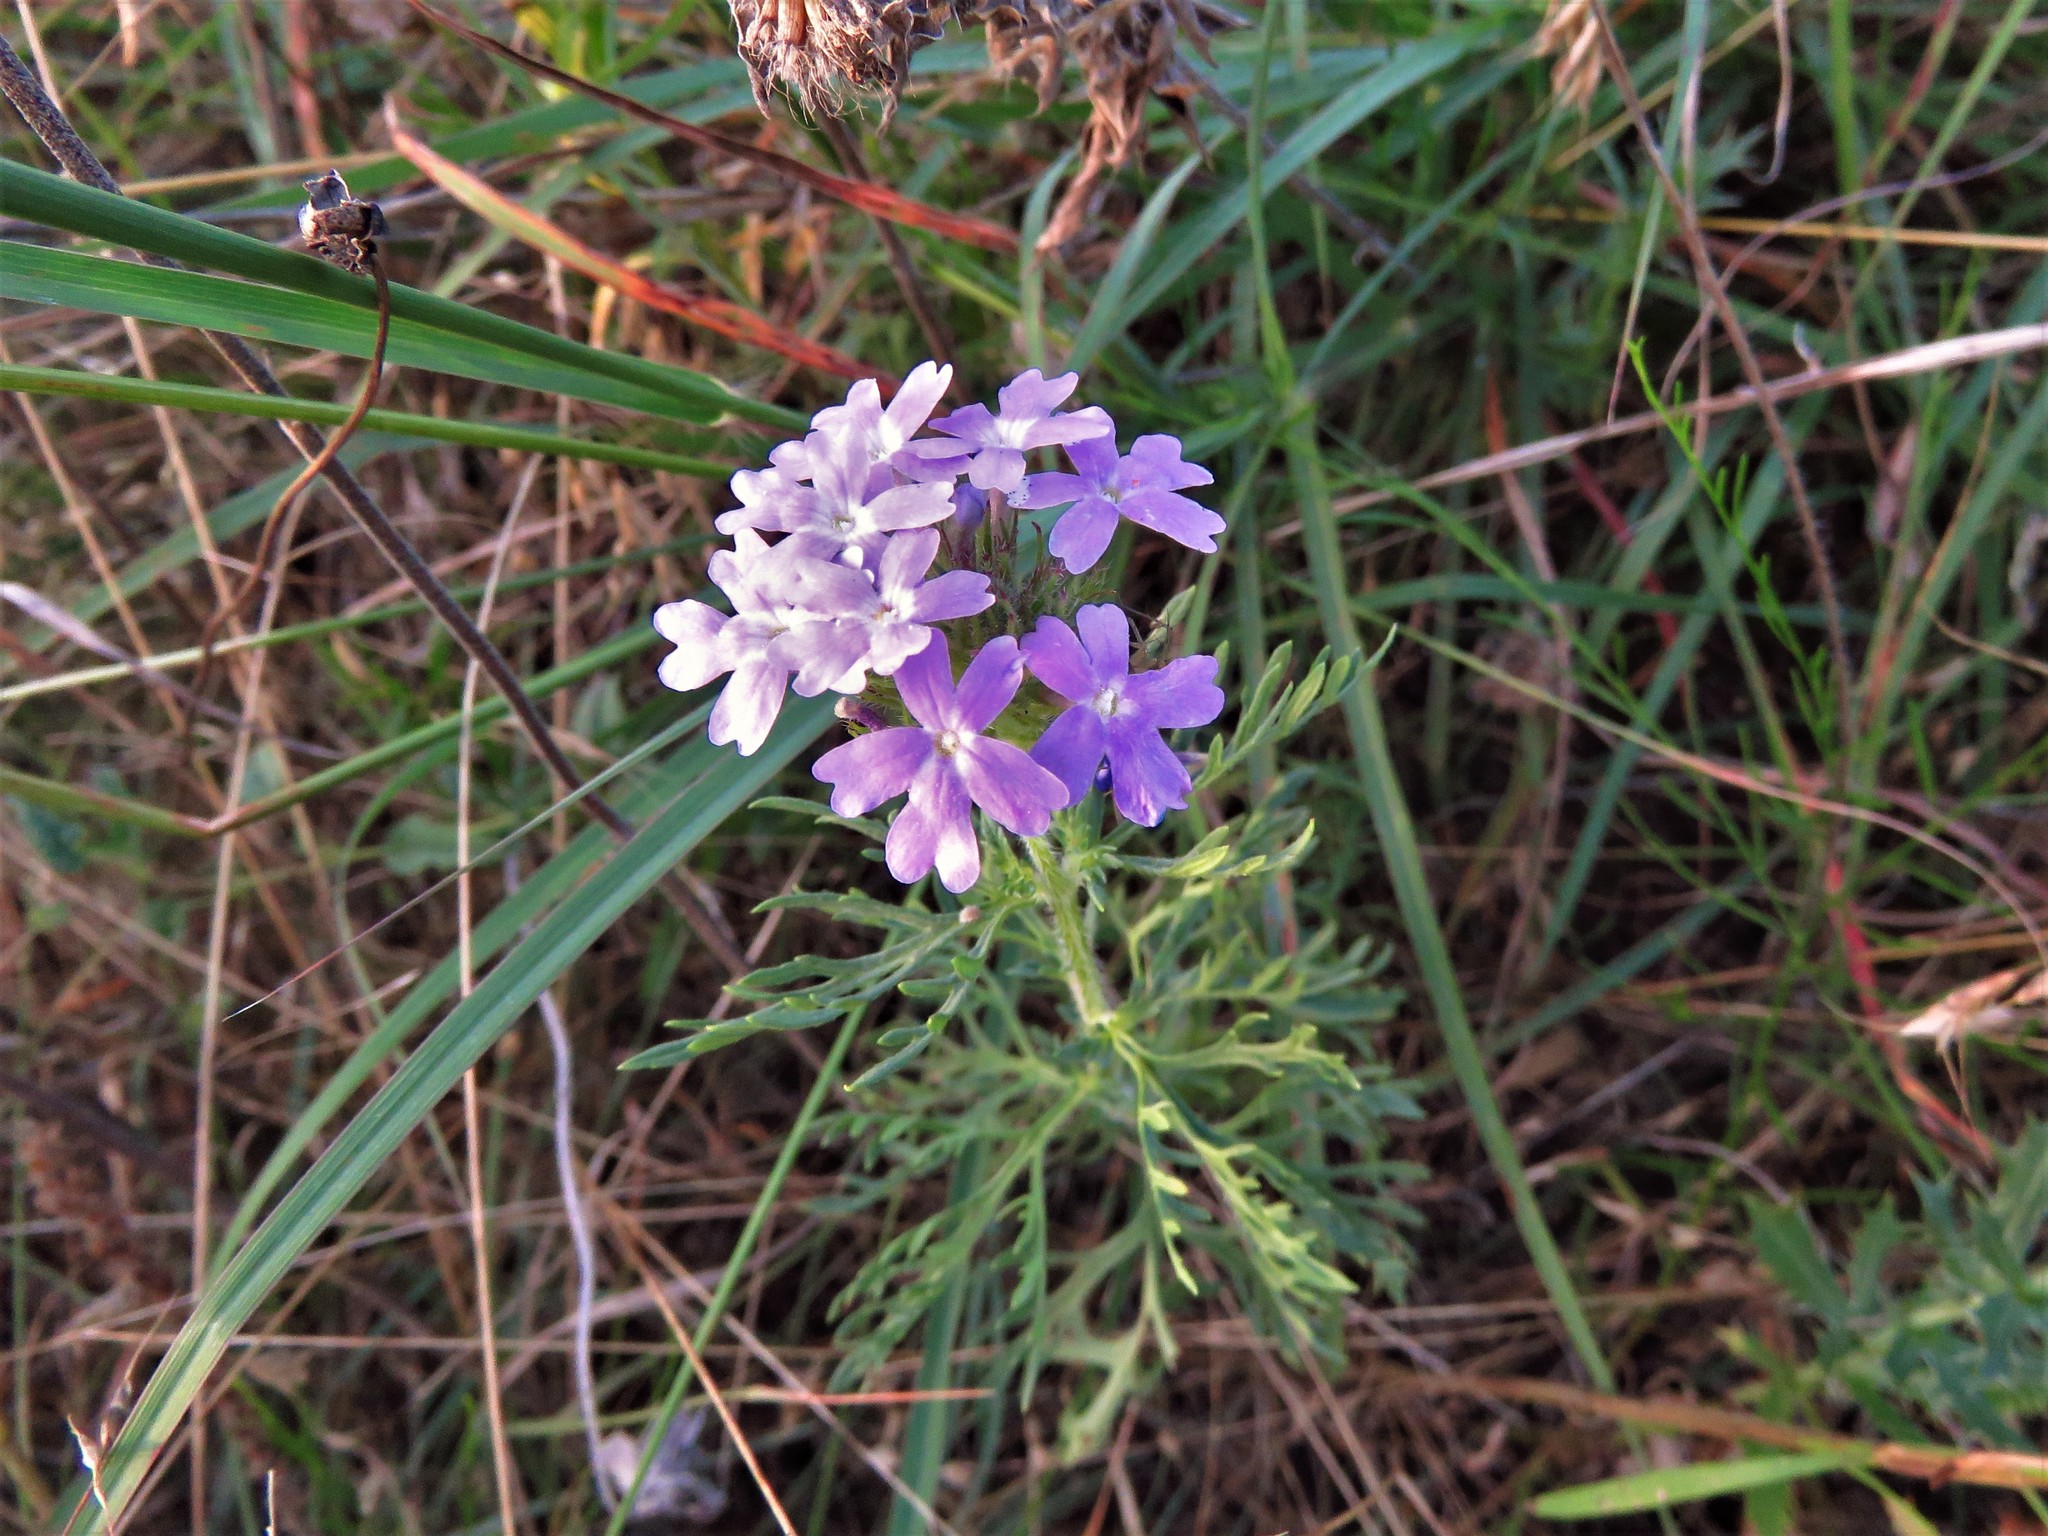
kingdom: Plantae
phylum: Tracheophyta
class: Magnoliopsida
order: Lamiales
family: Verbenaceae
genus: Verbena
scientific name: Verbena bipinnatifida
